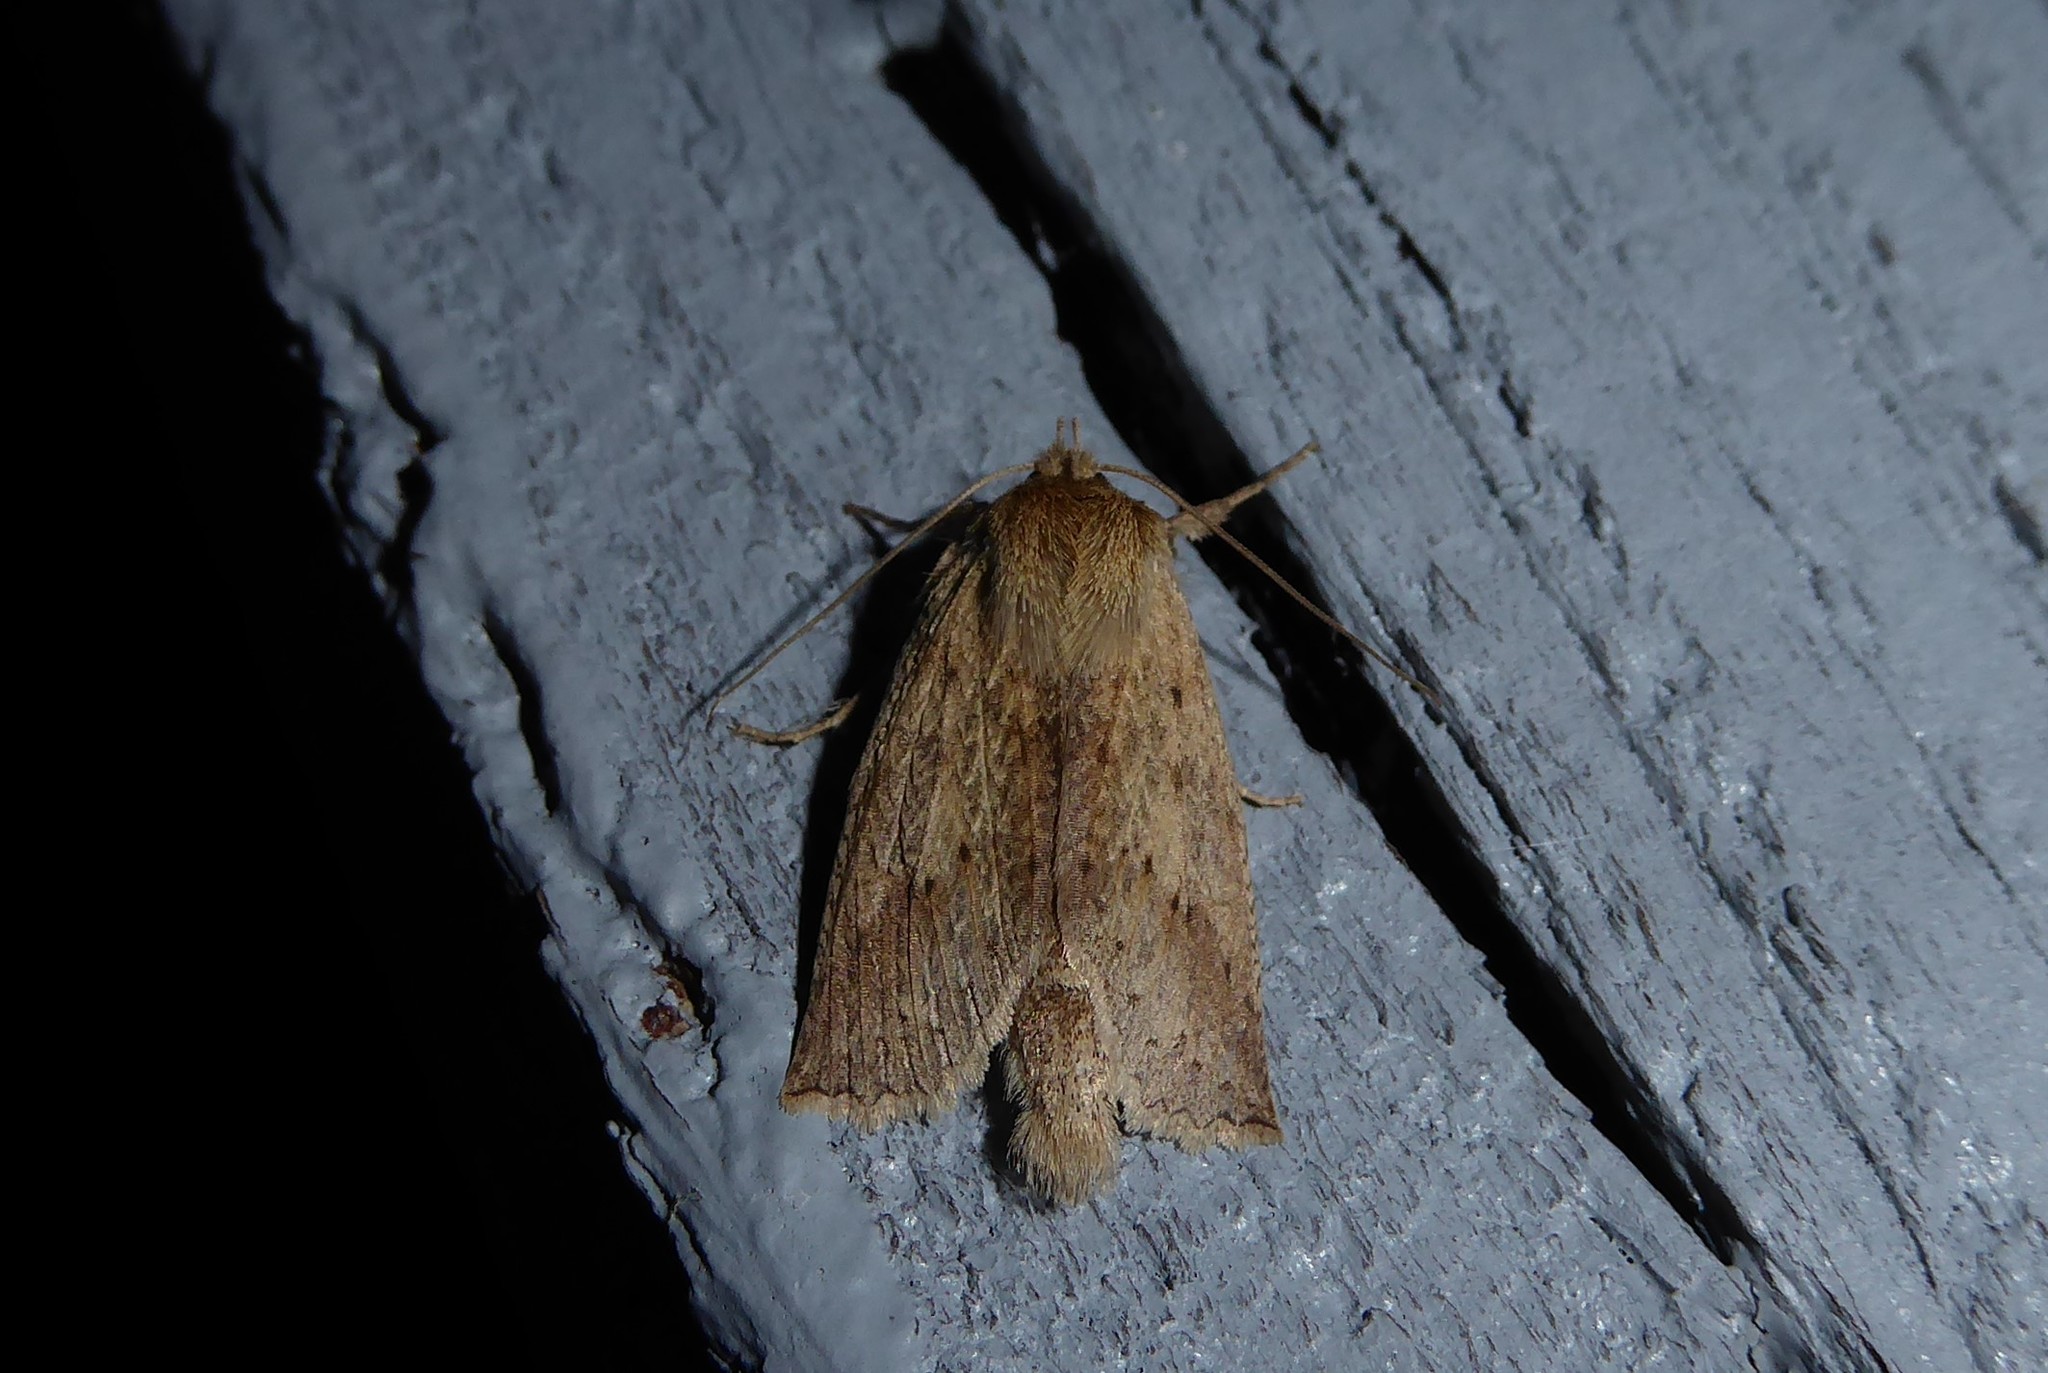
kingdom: Animalia
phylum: Arthropoda
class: Insecta
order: Lepidoptera
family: Geometridae
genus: Declana
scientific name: Declana leptomera
